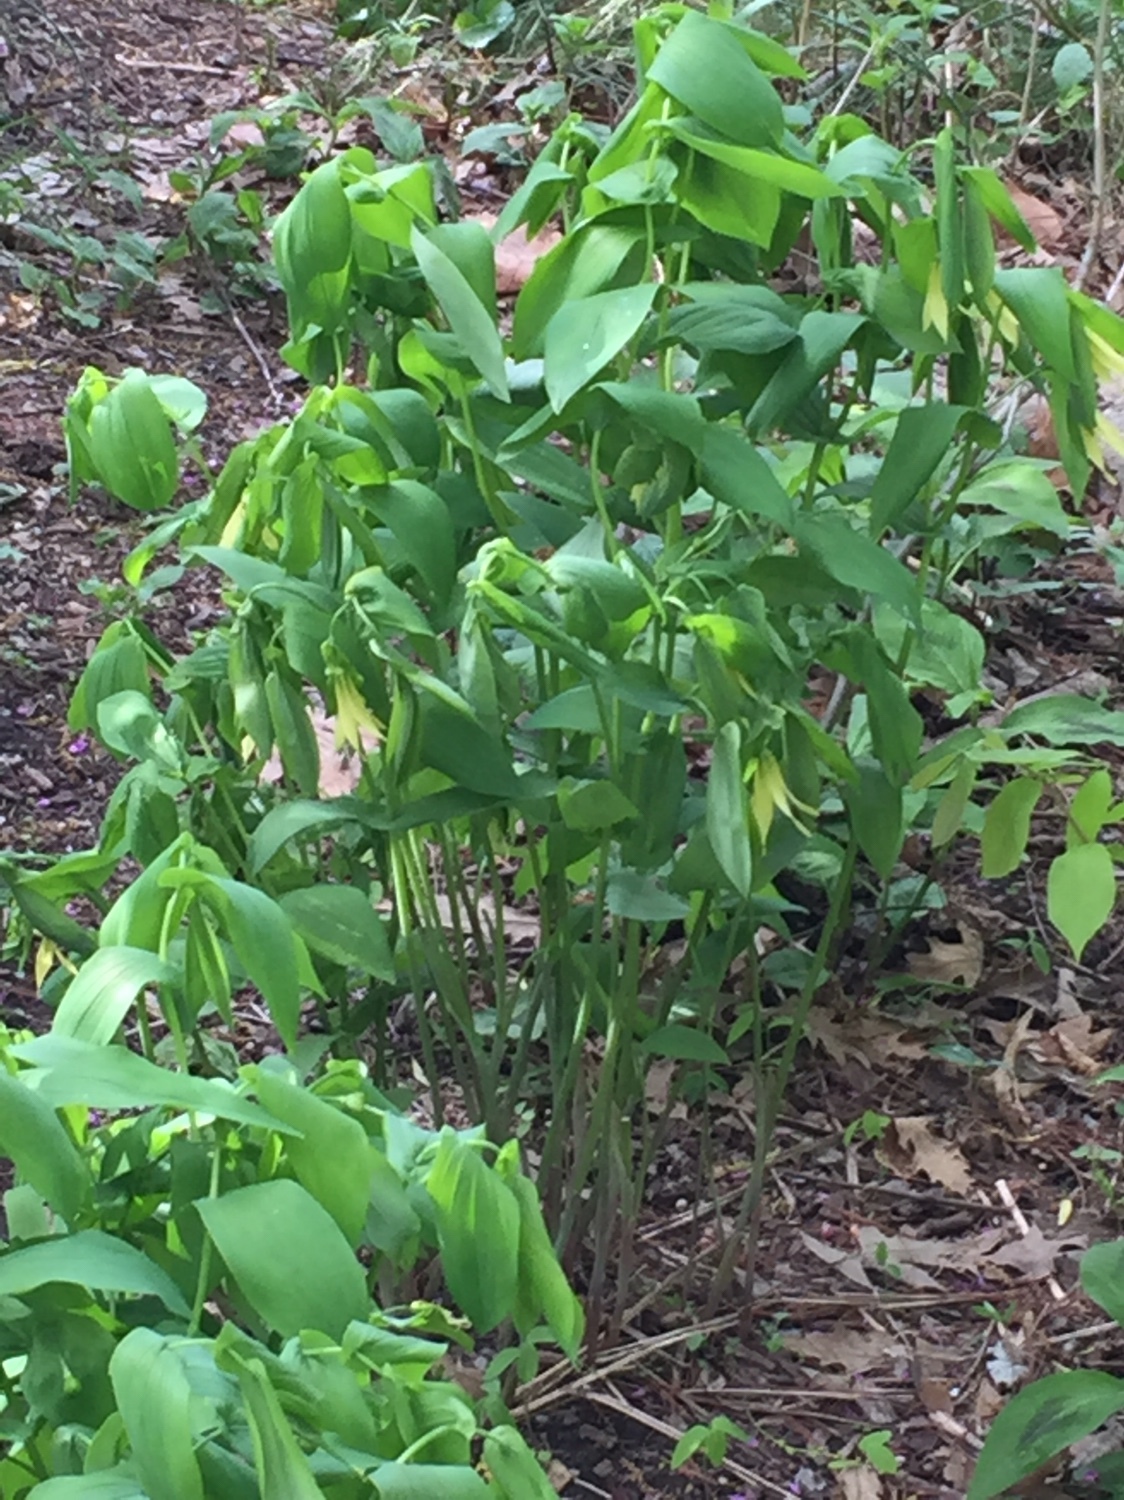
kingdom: Plantae
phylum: Tracheophyta
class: Liliopsida
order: Liliales
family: Colchicaceae
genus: Uvularia
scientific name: Uvularia grandiflora
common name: Bellwort
